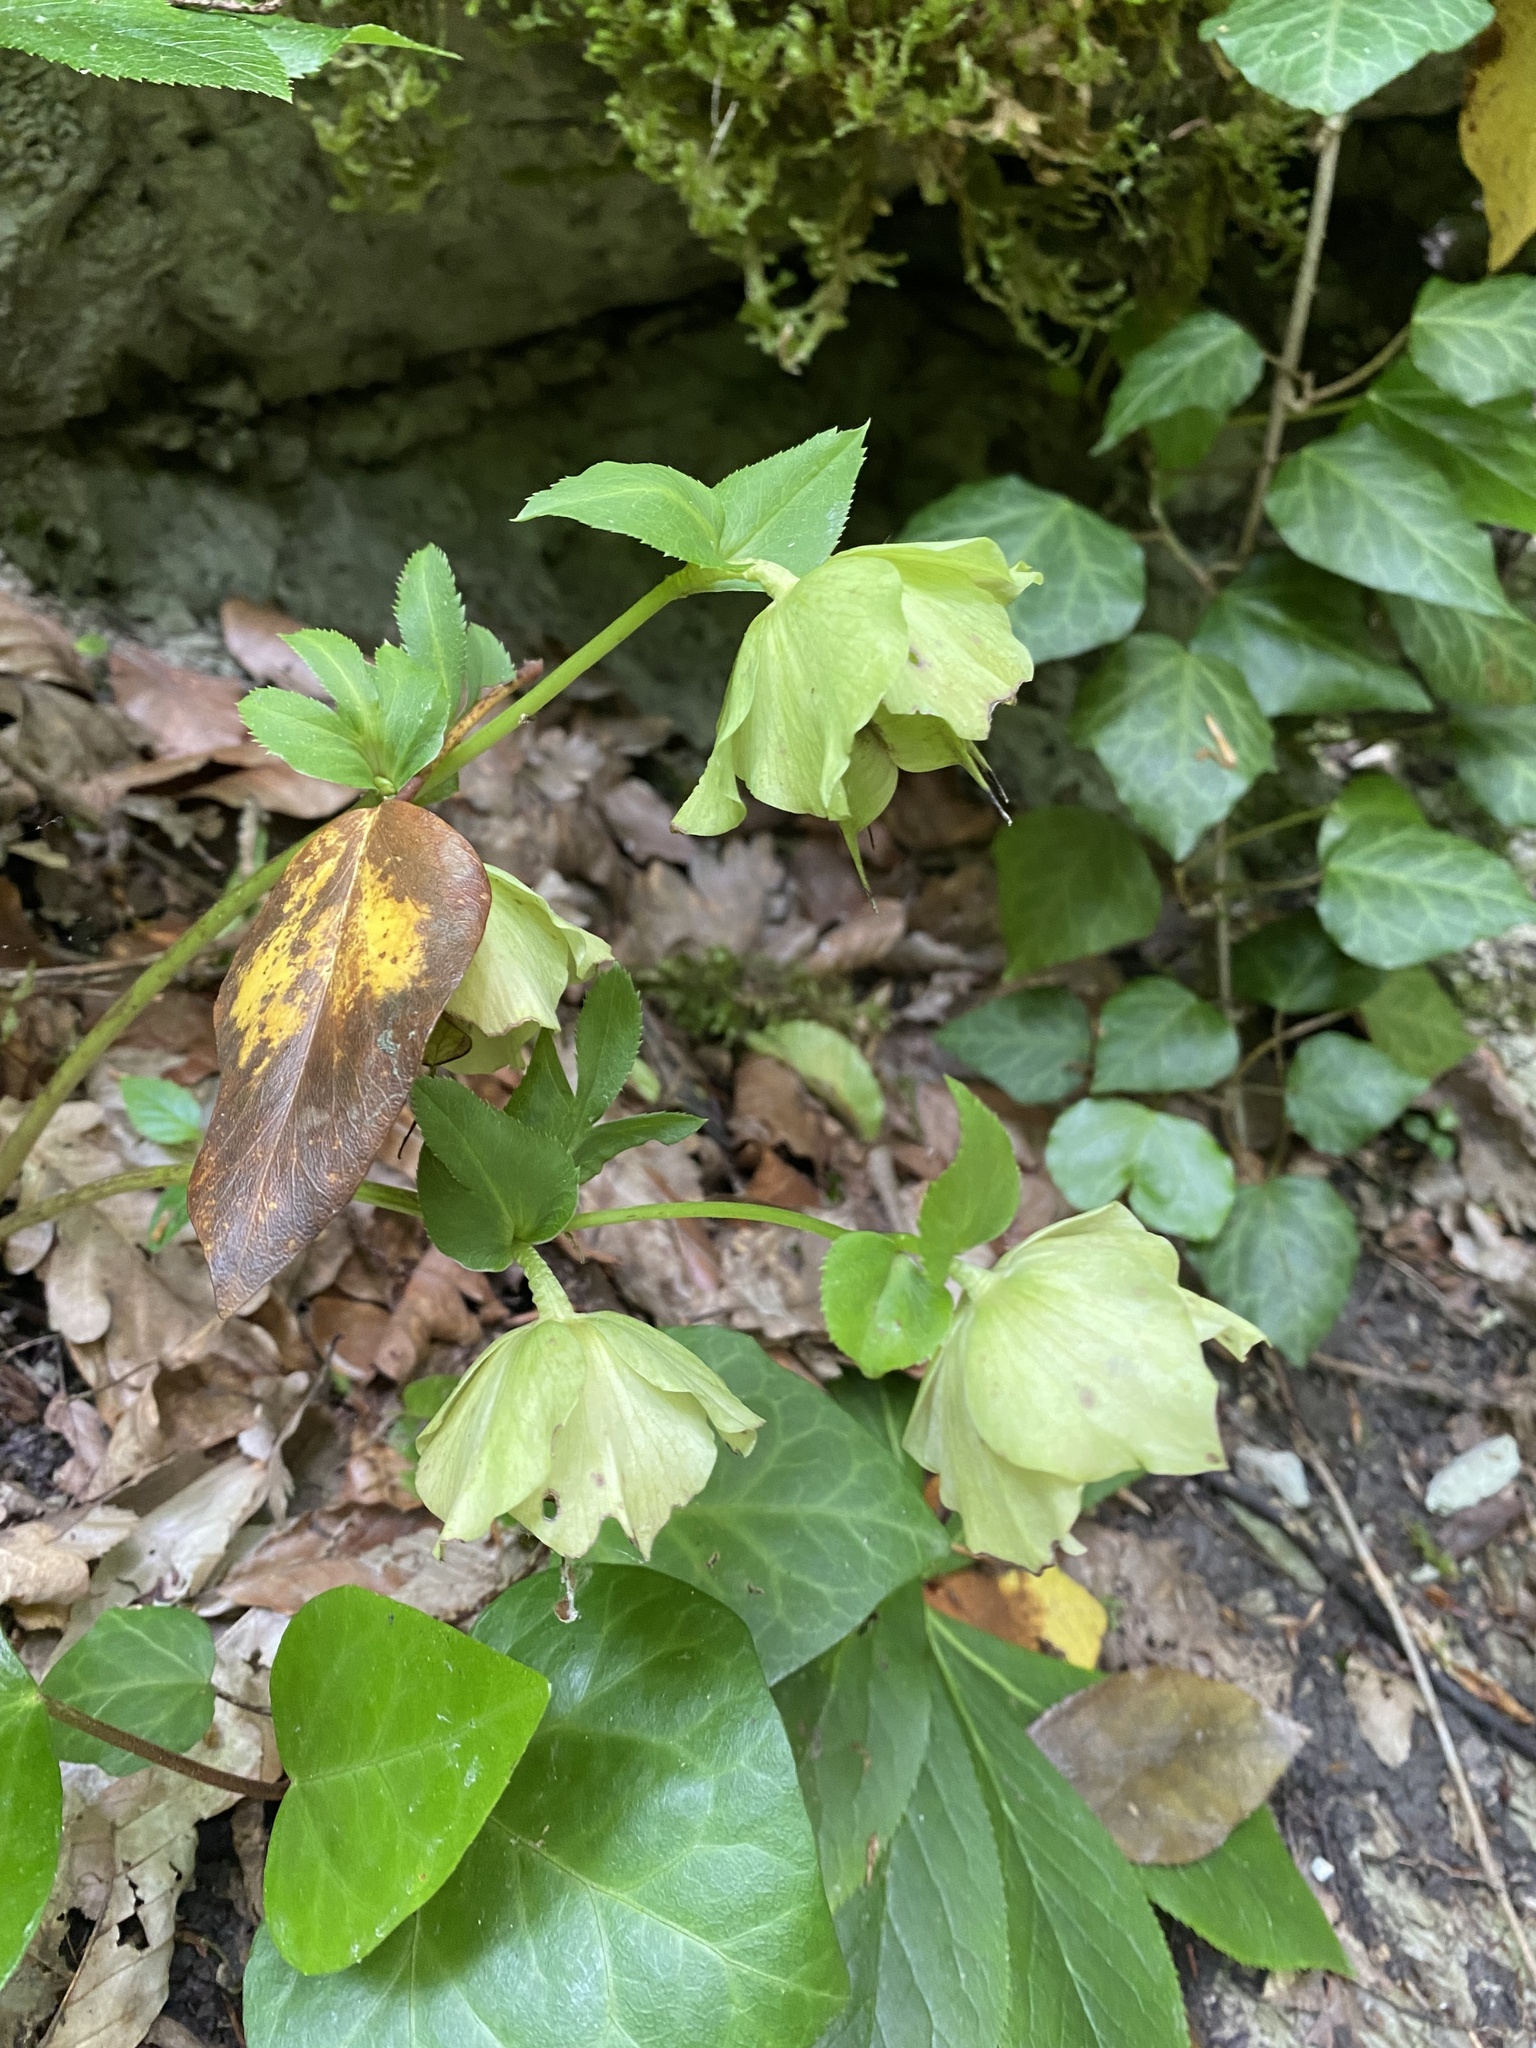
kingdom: Plantae
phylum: Tracheophyta
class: Magnoliopsida
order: Ranunculales
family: Ranunculaceae
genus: Helleborus
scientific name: Helleborus orientalis
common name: Lenten-rose
